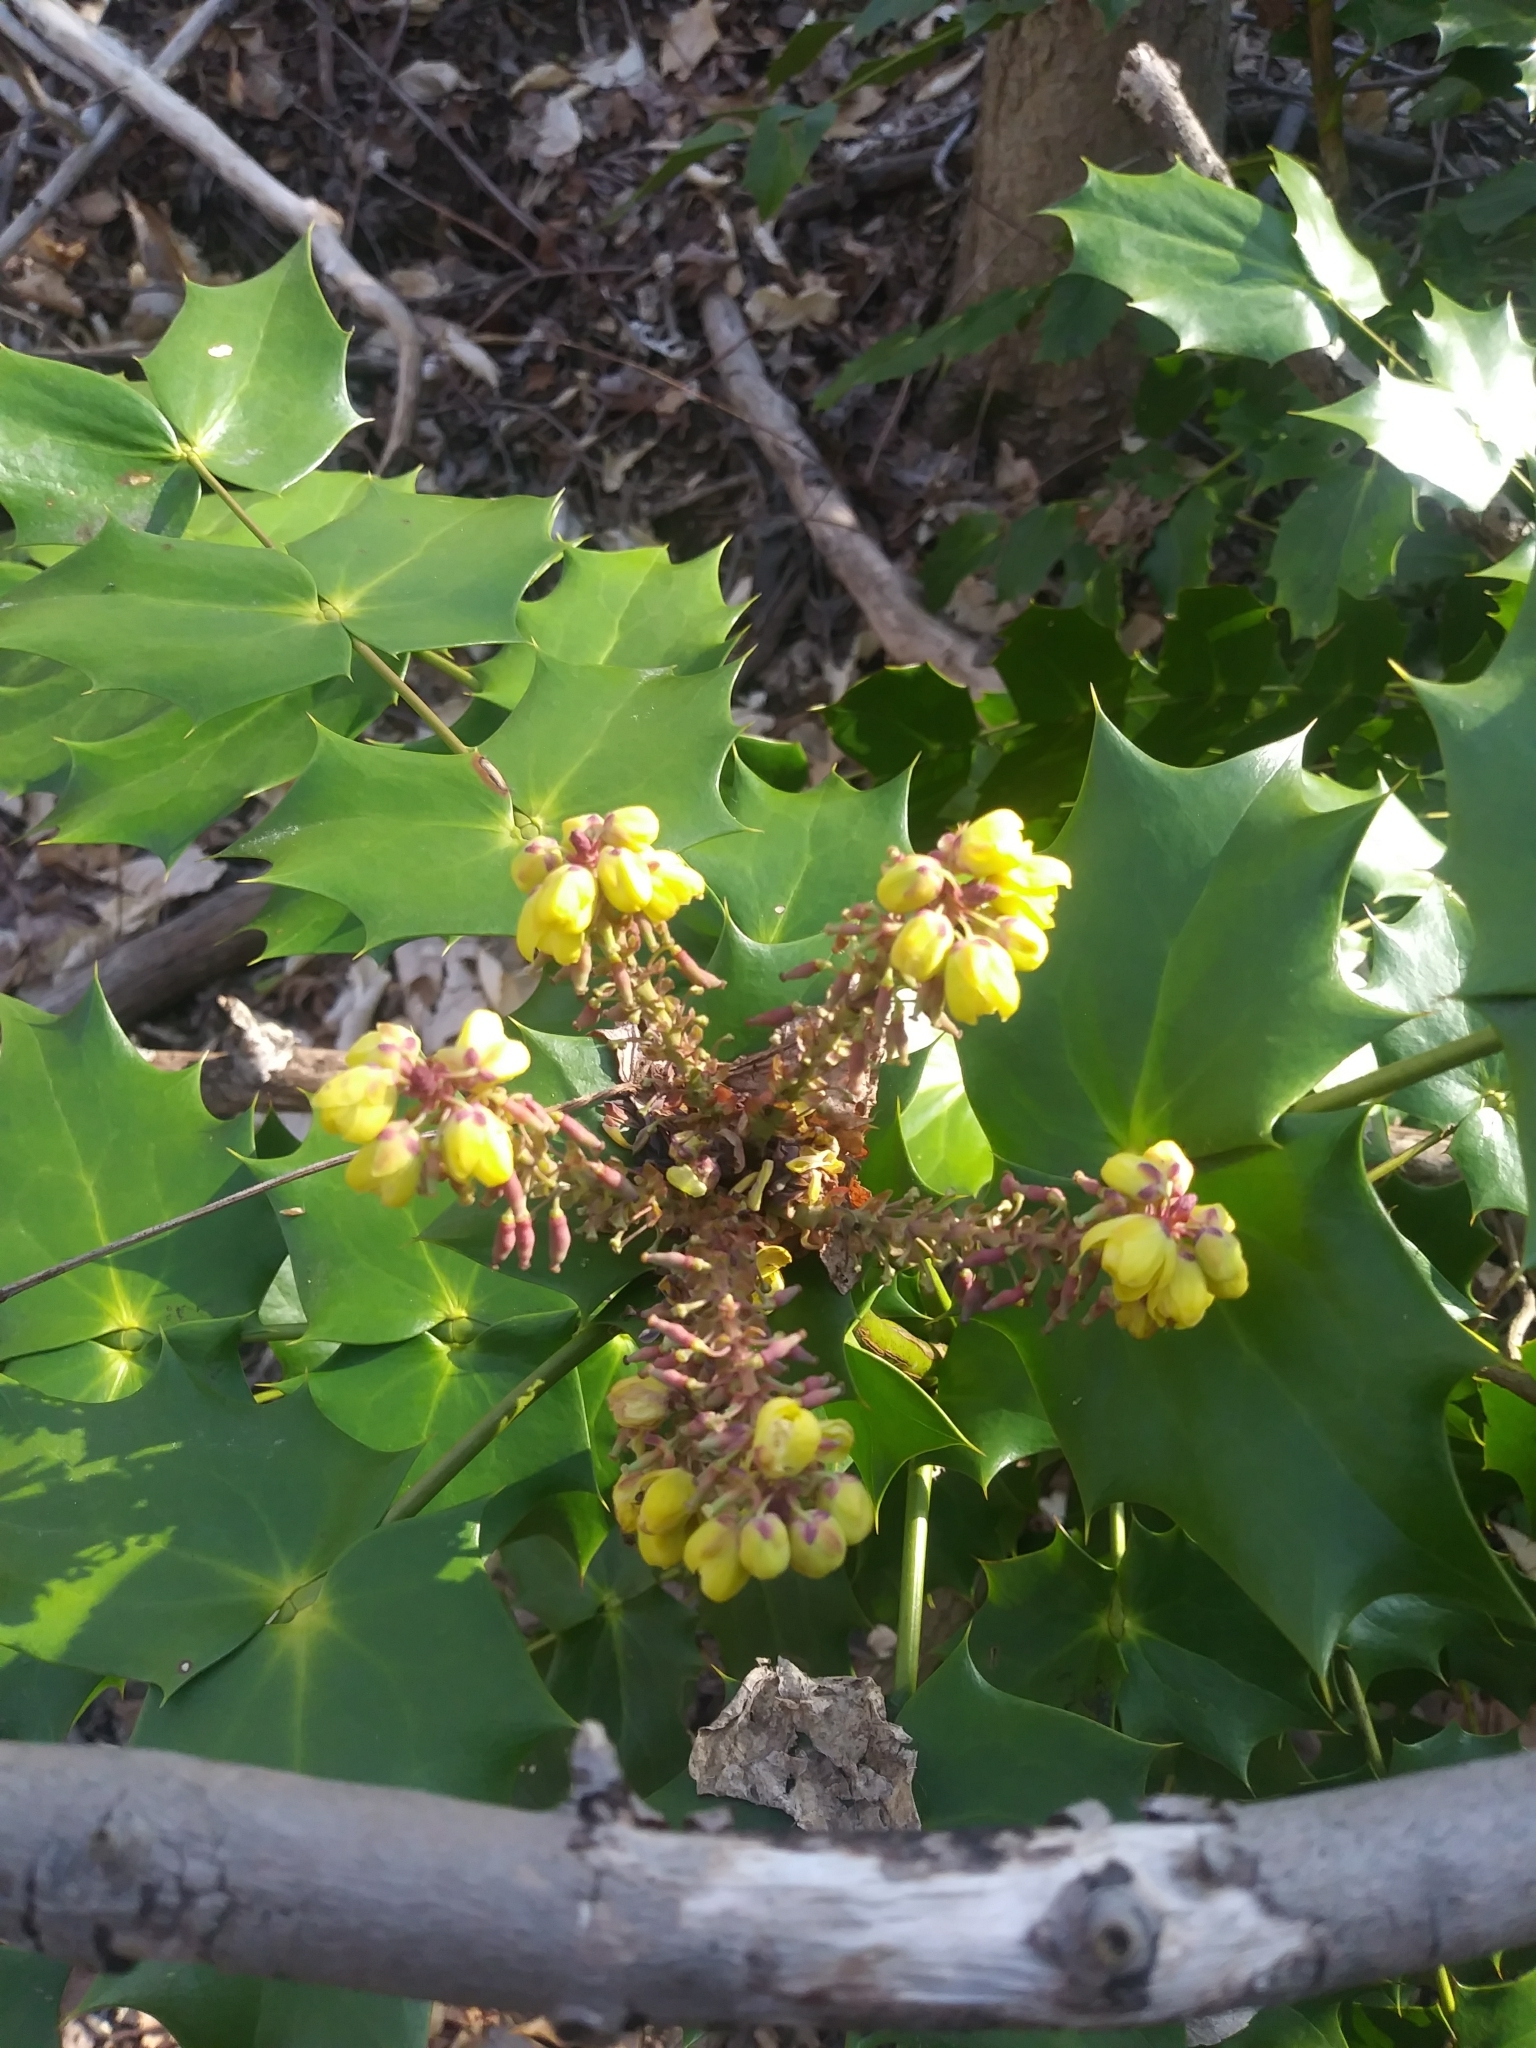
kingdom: Plantae
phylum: Tracheophyta
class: Magnoliopsida
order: Ranunculales
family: Berberidaceae
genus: Mahonia
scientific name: Mahonia bealei
